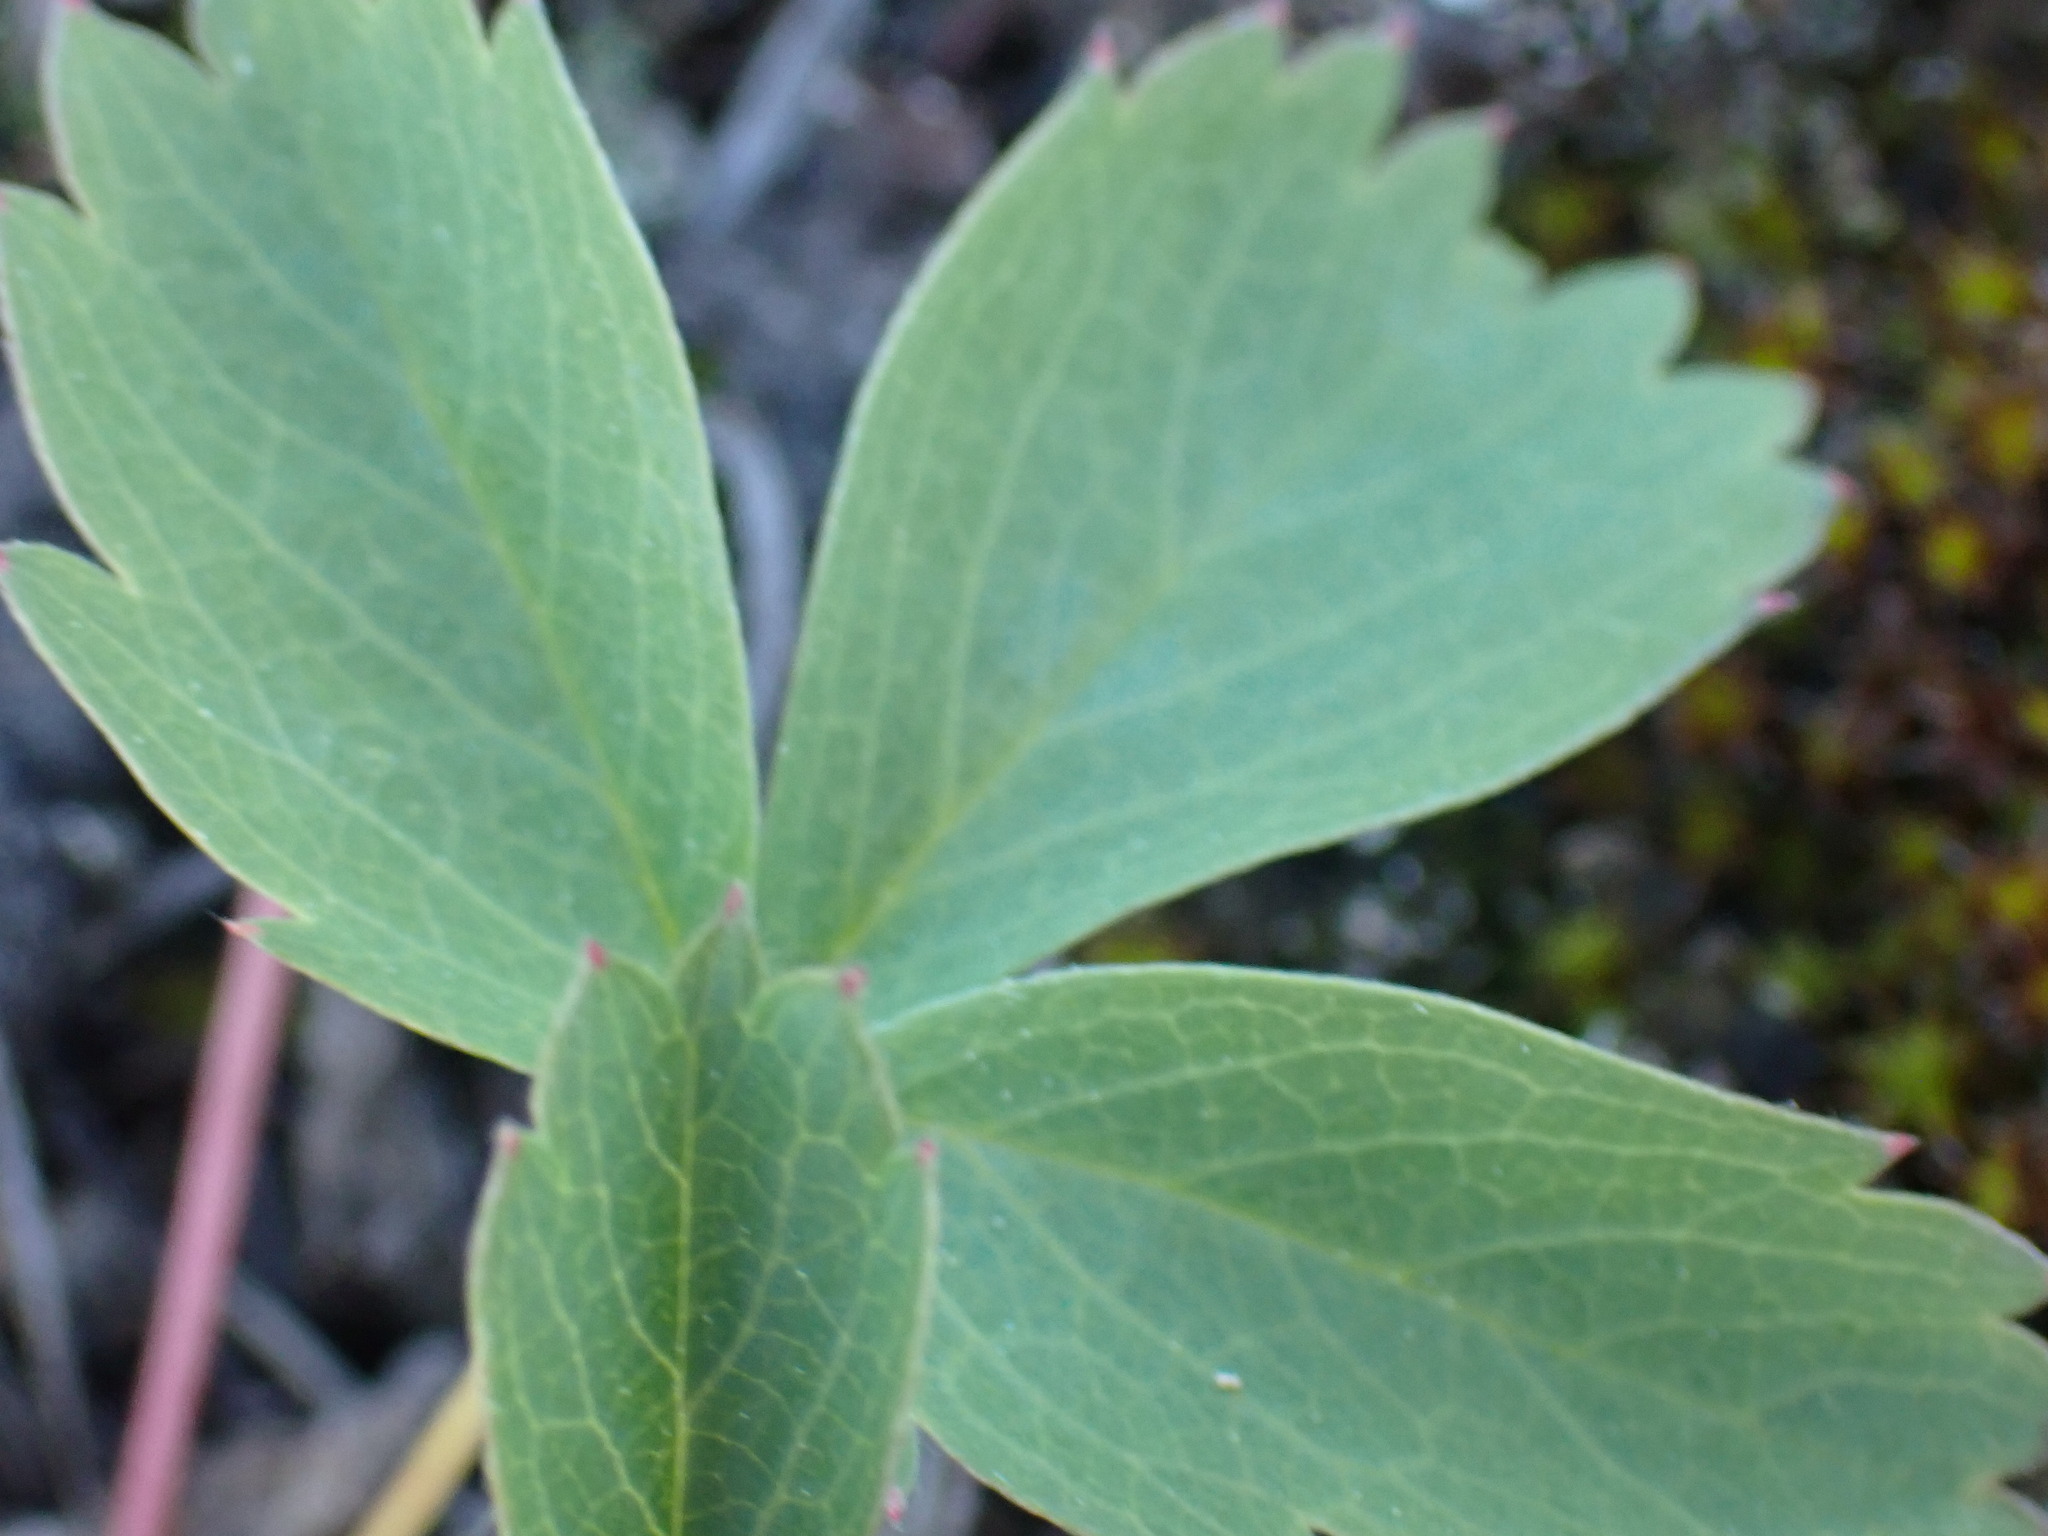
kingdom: Plantae
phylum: Tracheophyta
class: Magnoliopsida
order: Rosales
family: Rosaceae
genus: Fragaria
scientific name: Fragaria virginiana
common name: Thickleaved wild strawberry
